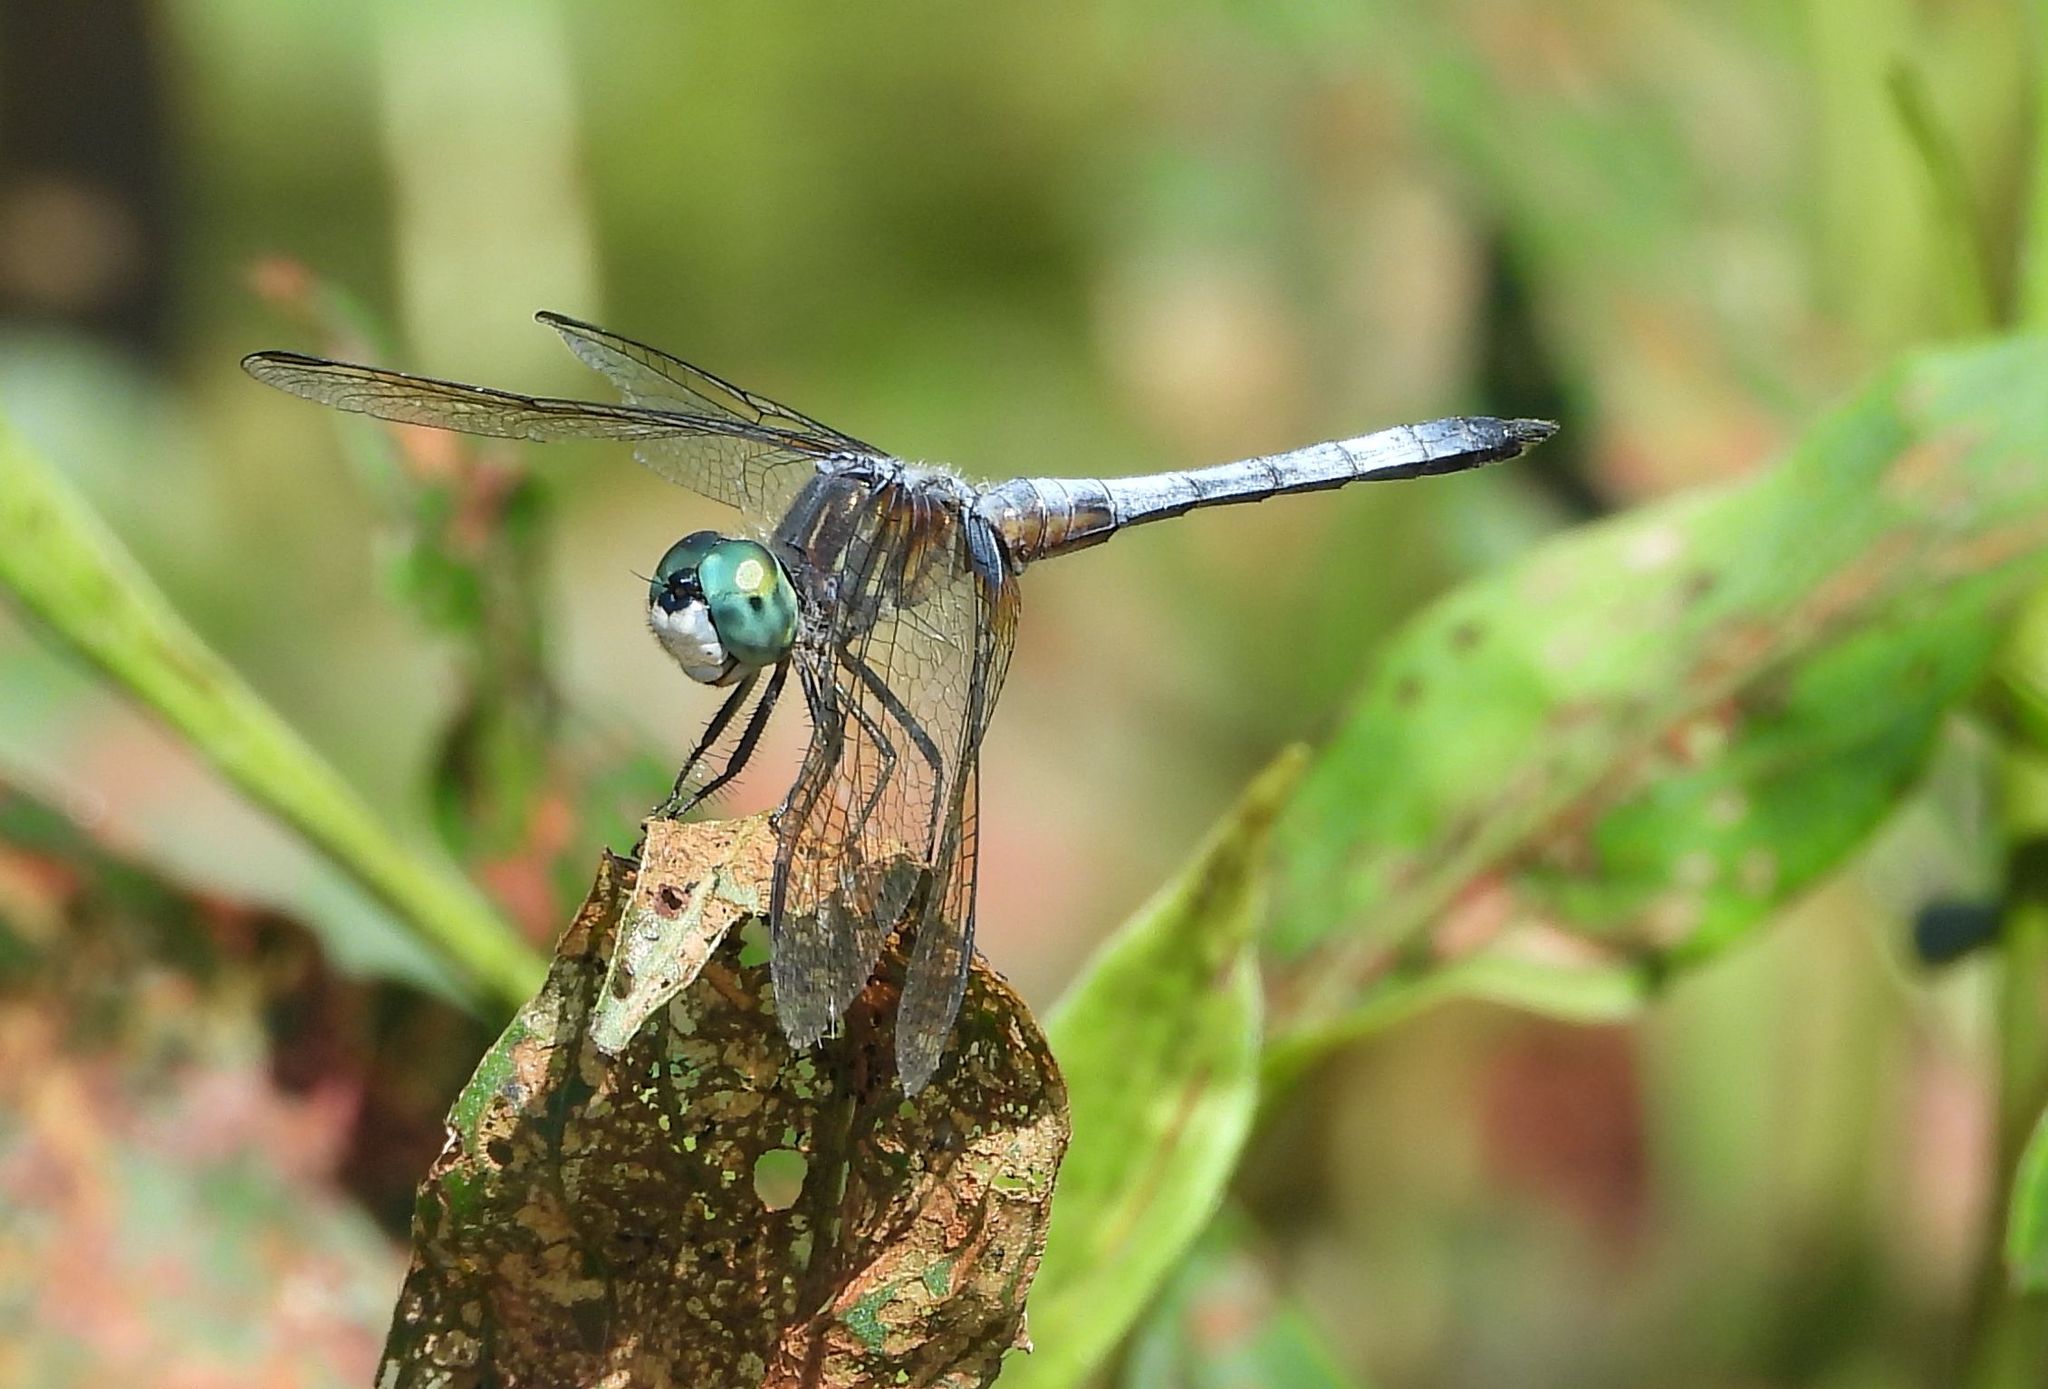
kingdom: Animalia
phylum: Arthropoda
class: Insecta
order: Odonata
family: Libellulidae
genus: Pachydiplax
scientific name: Pachydiplax longipennis
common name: Blue dasher
